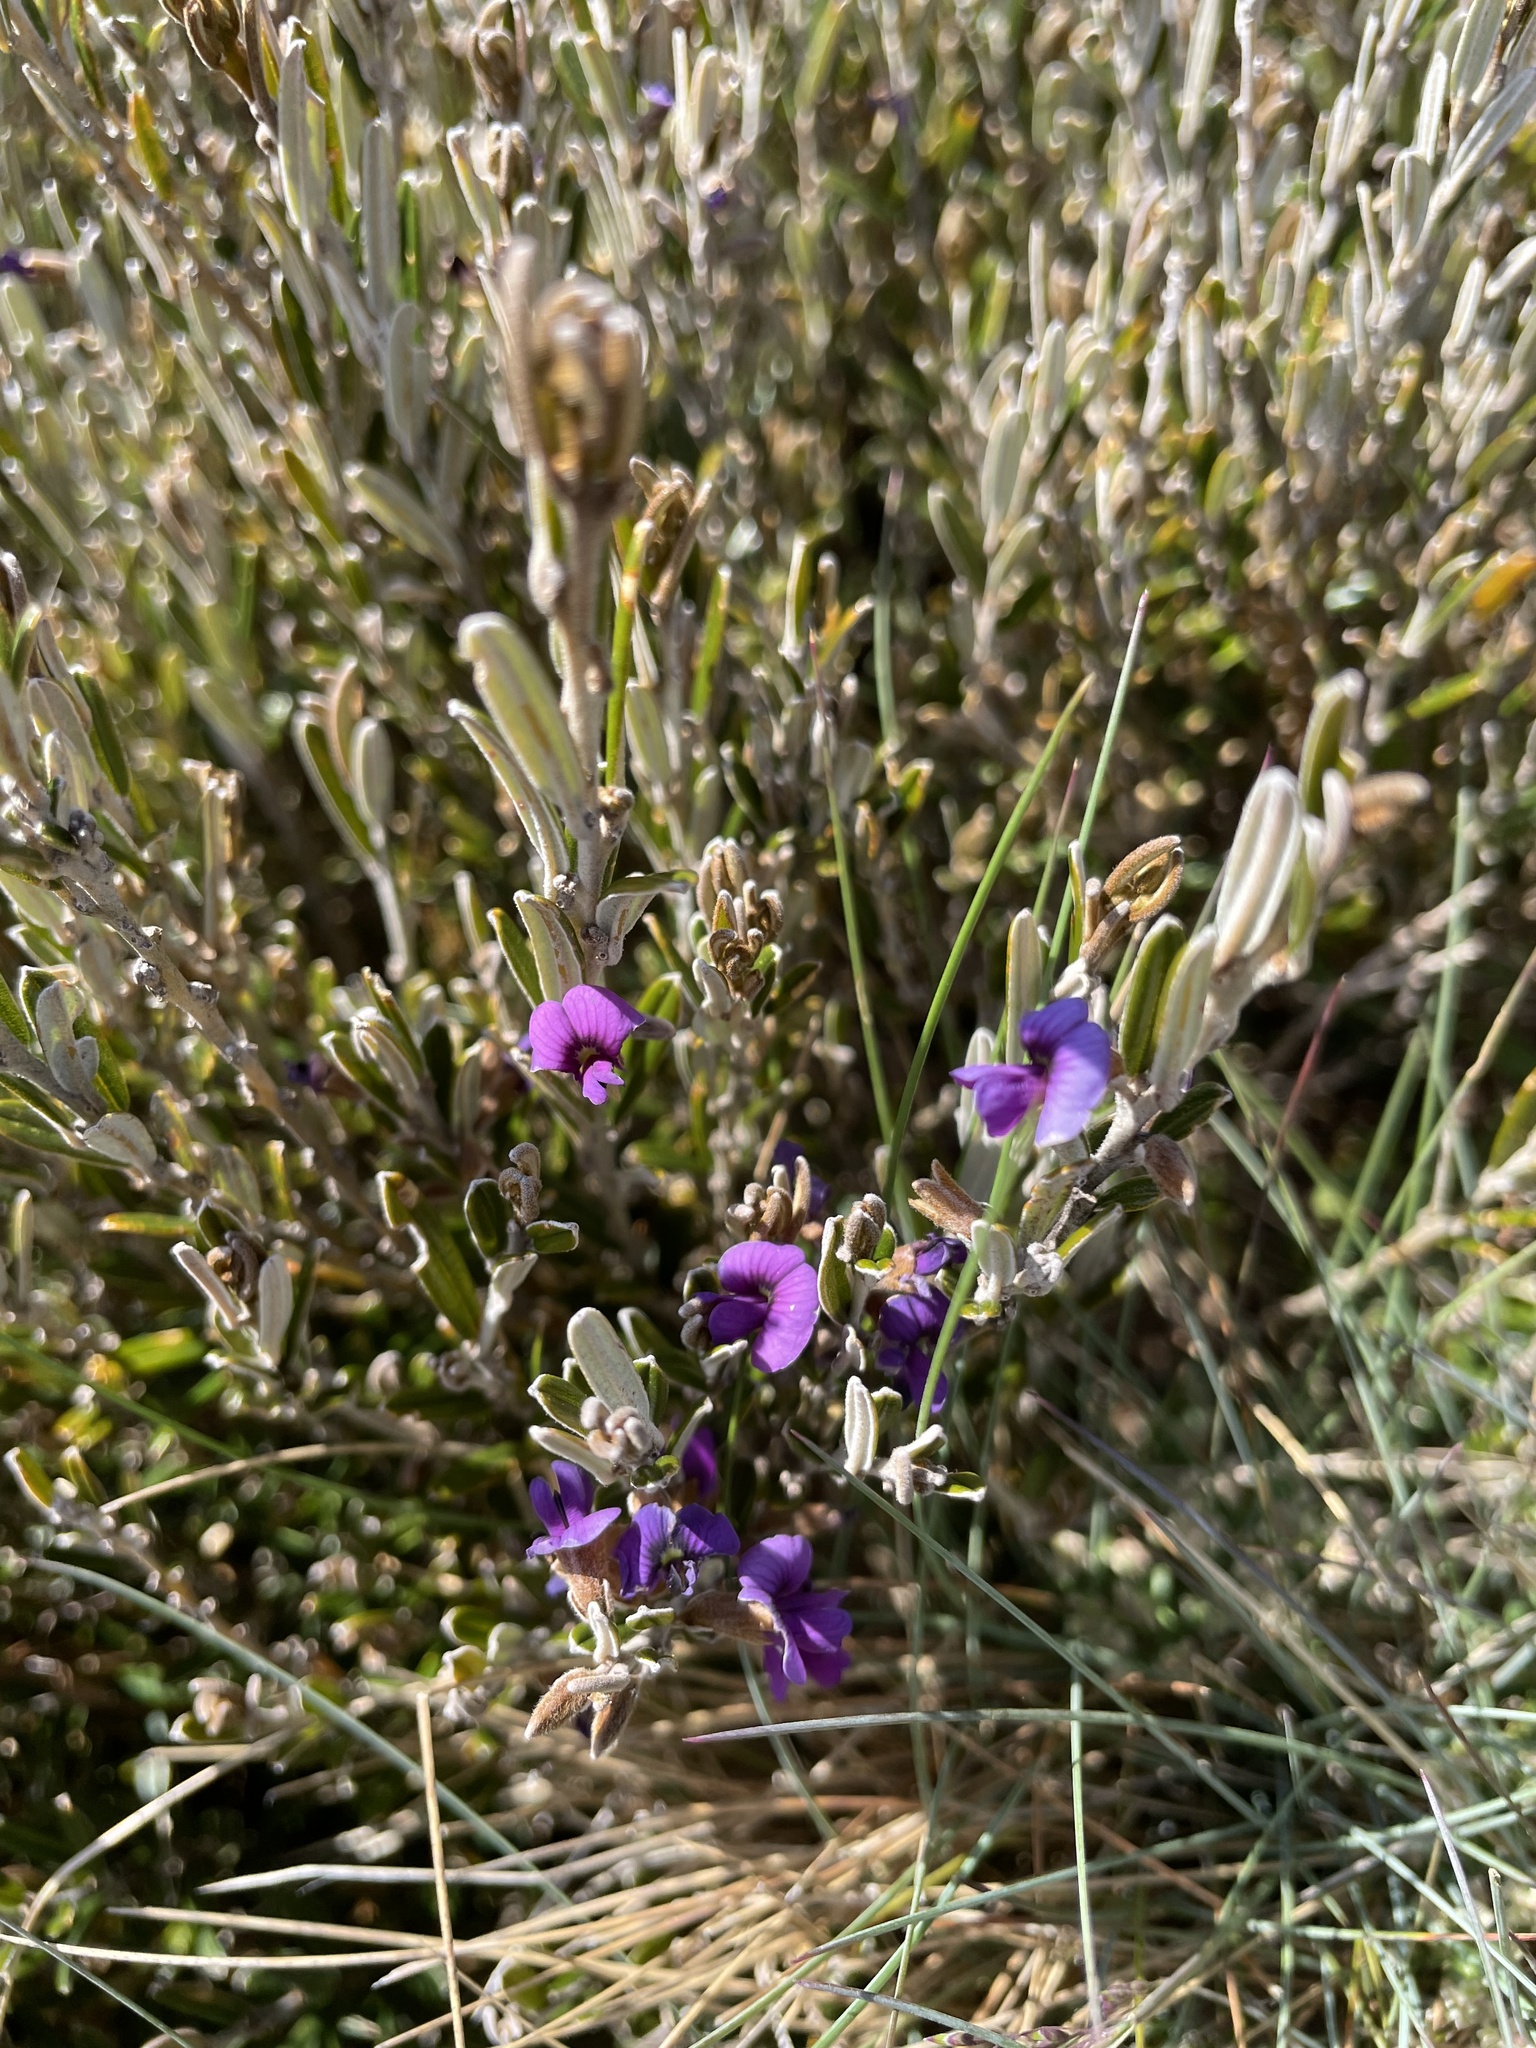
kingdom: Plantae
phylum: Tracheophyta
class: Magnoliopsida
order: Fabales
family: Fabaceae
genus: Hovea
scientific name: Hovea montana
